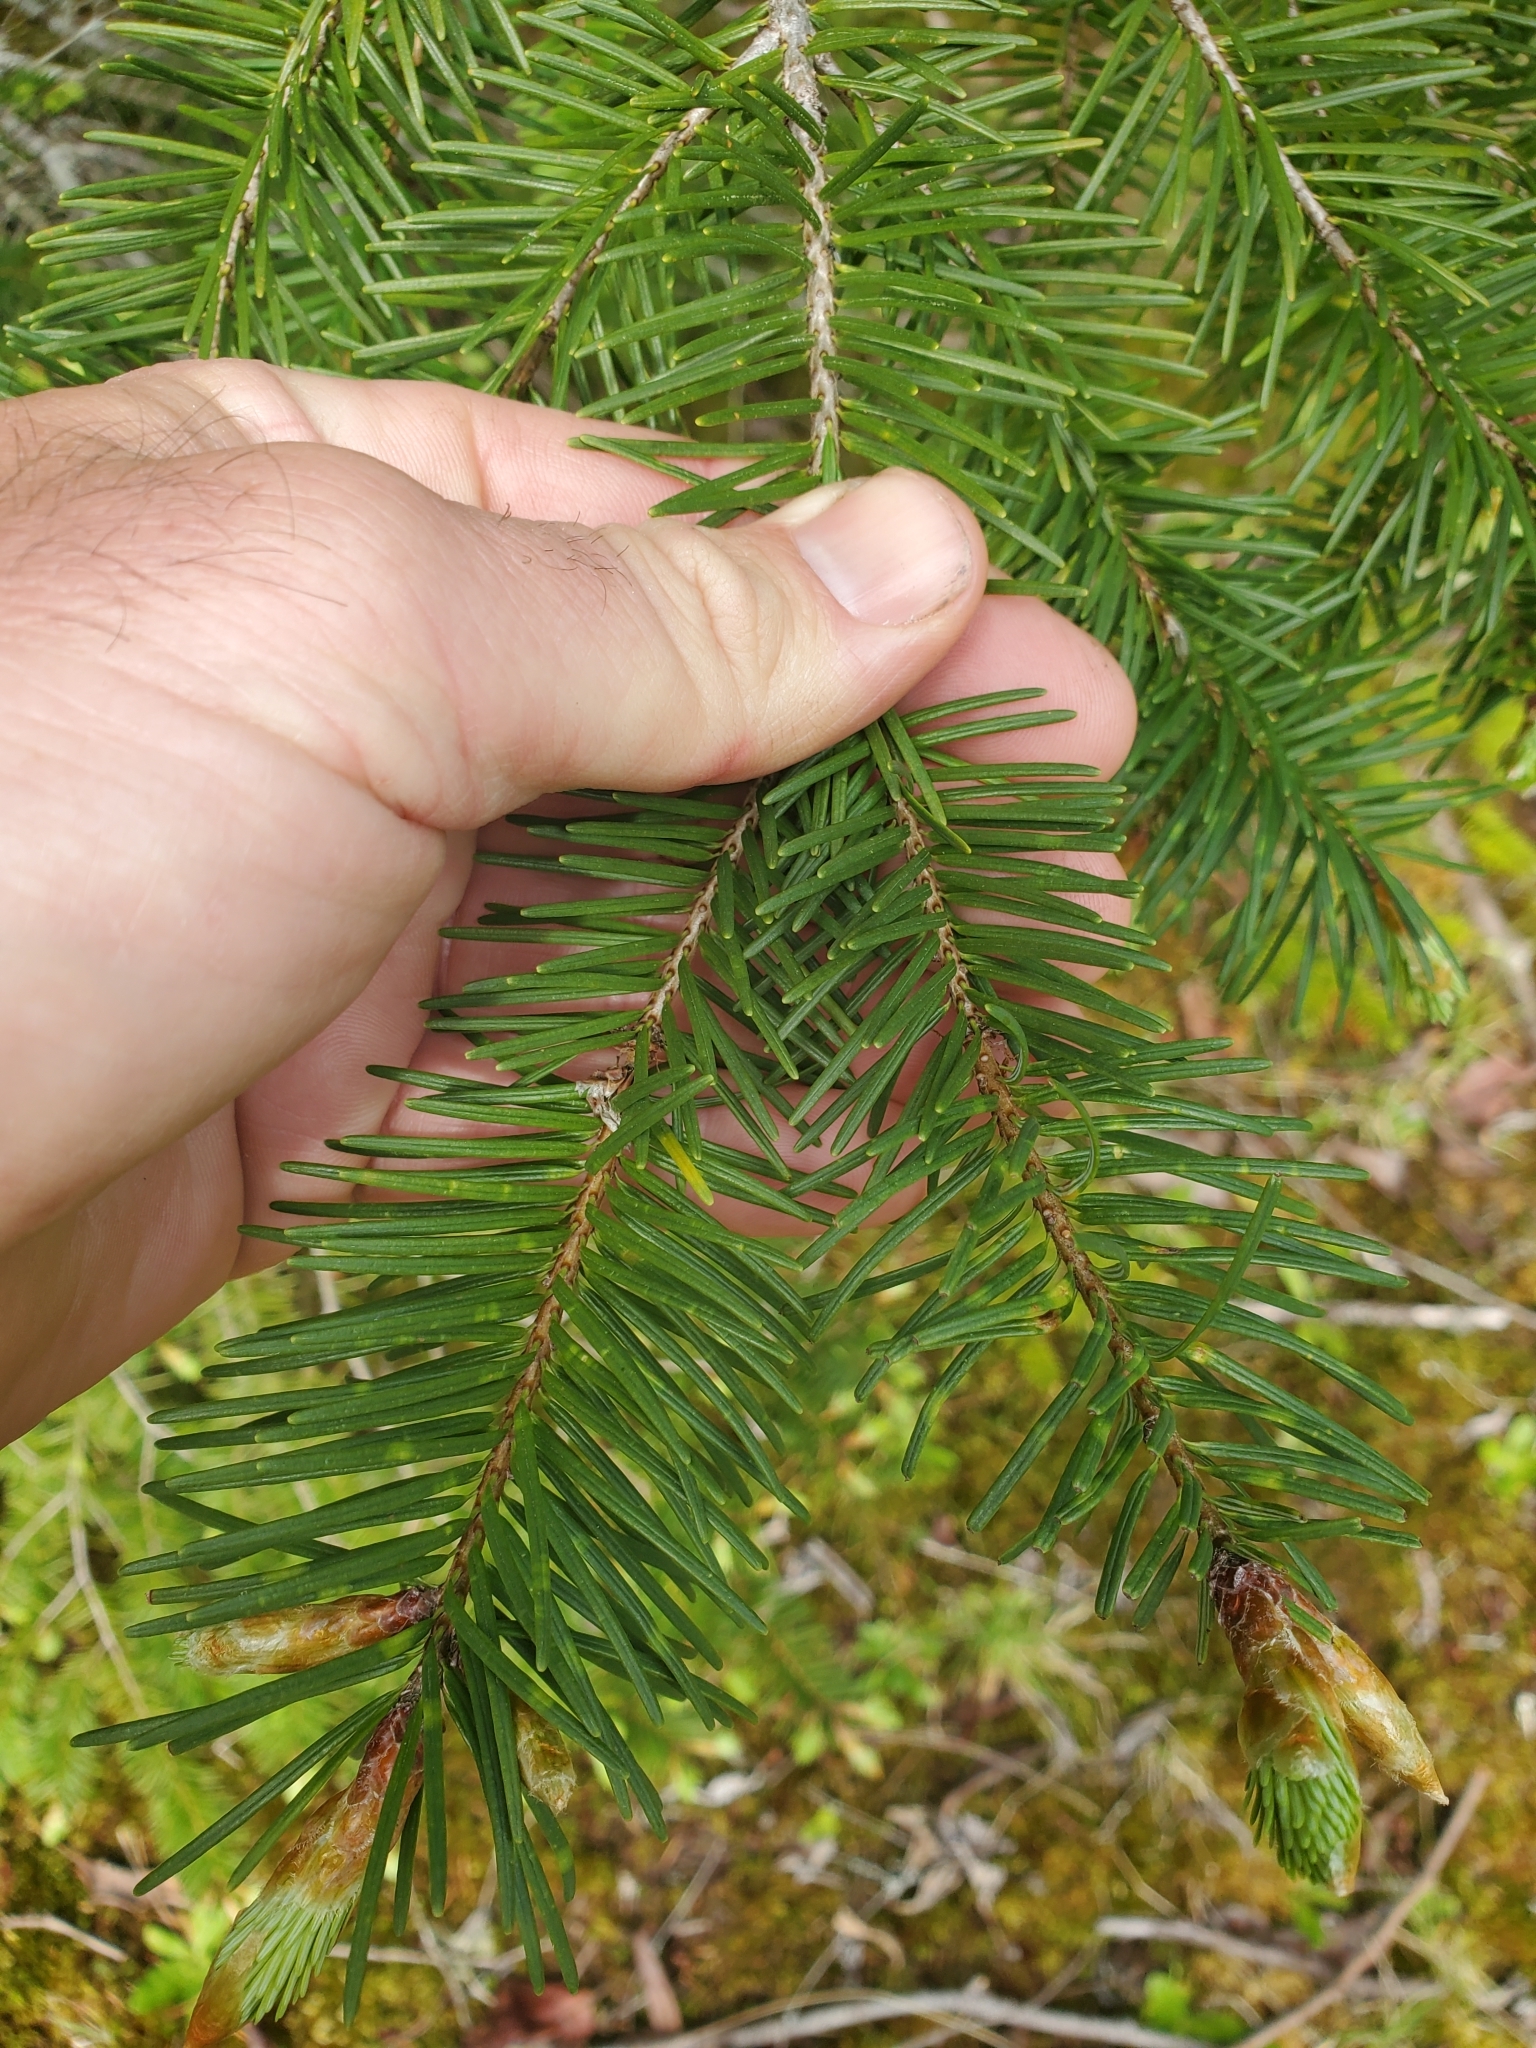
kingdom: Plantae
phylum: Tracheophyta
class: Pinopsida
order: Pinales
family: Pinaceae
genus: Pseudotsuga
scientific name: Pseudotsuga menziesii
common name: Douglas fir
